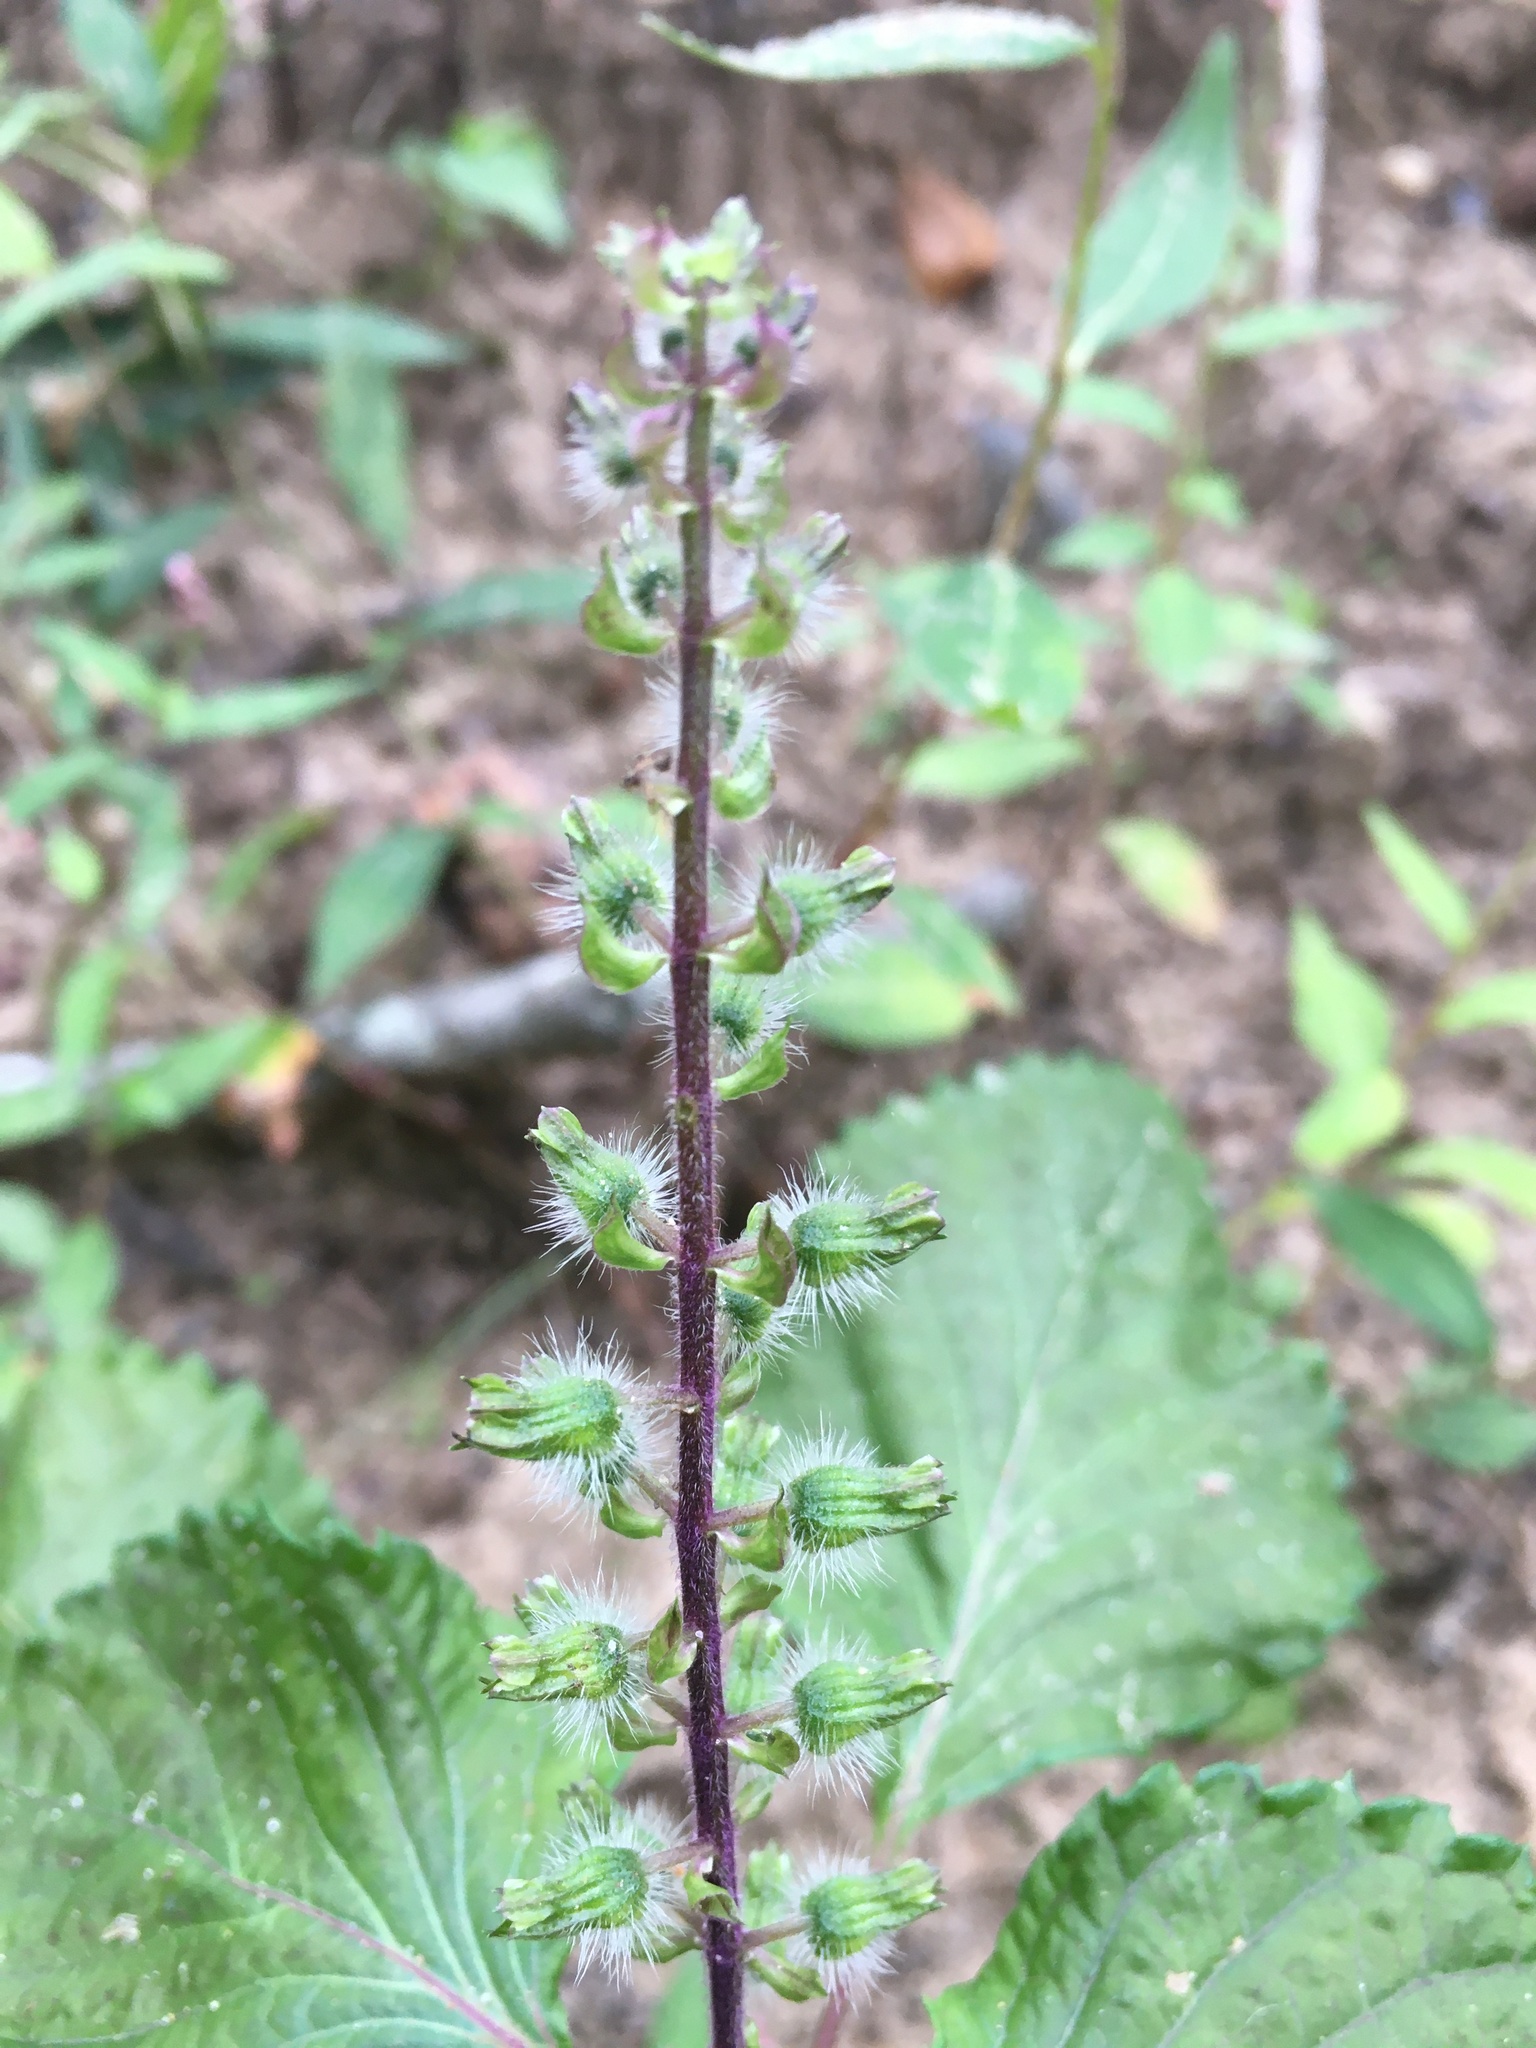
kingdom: Plantae
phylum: Tracheophyta
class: Magnoliopsida
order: Lamiales
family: Lamiaceae
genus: Perilla
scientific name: Perilla frutescens
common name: Perilla
